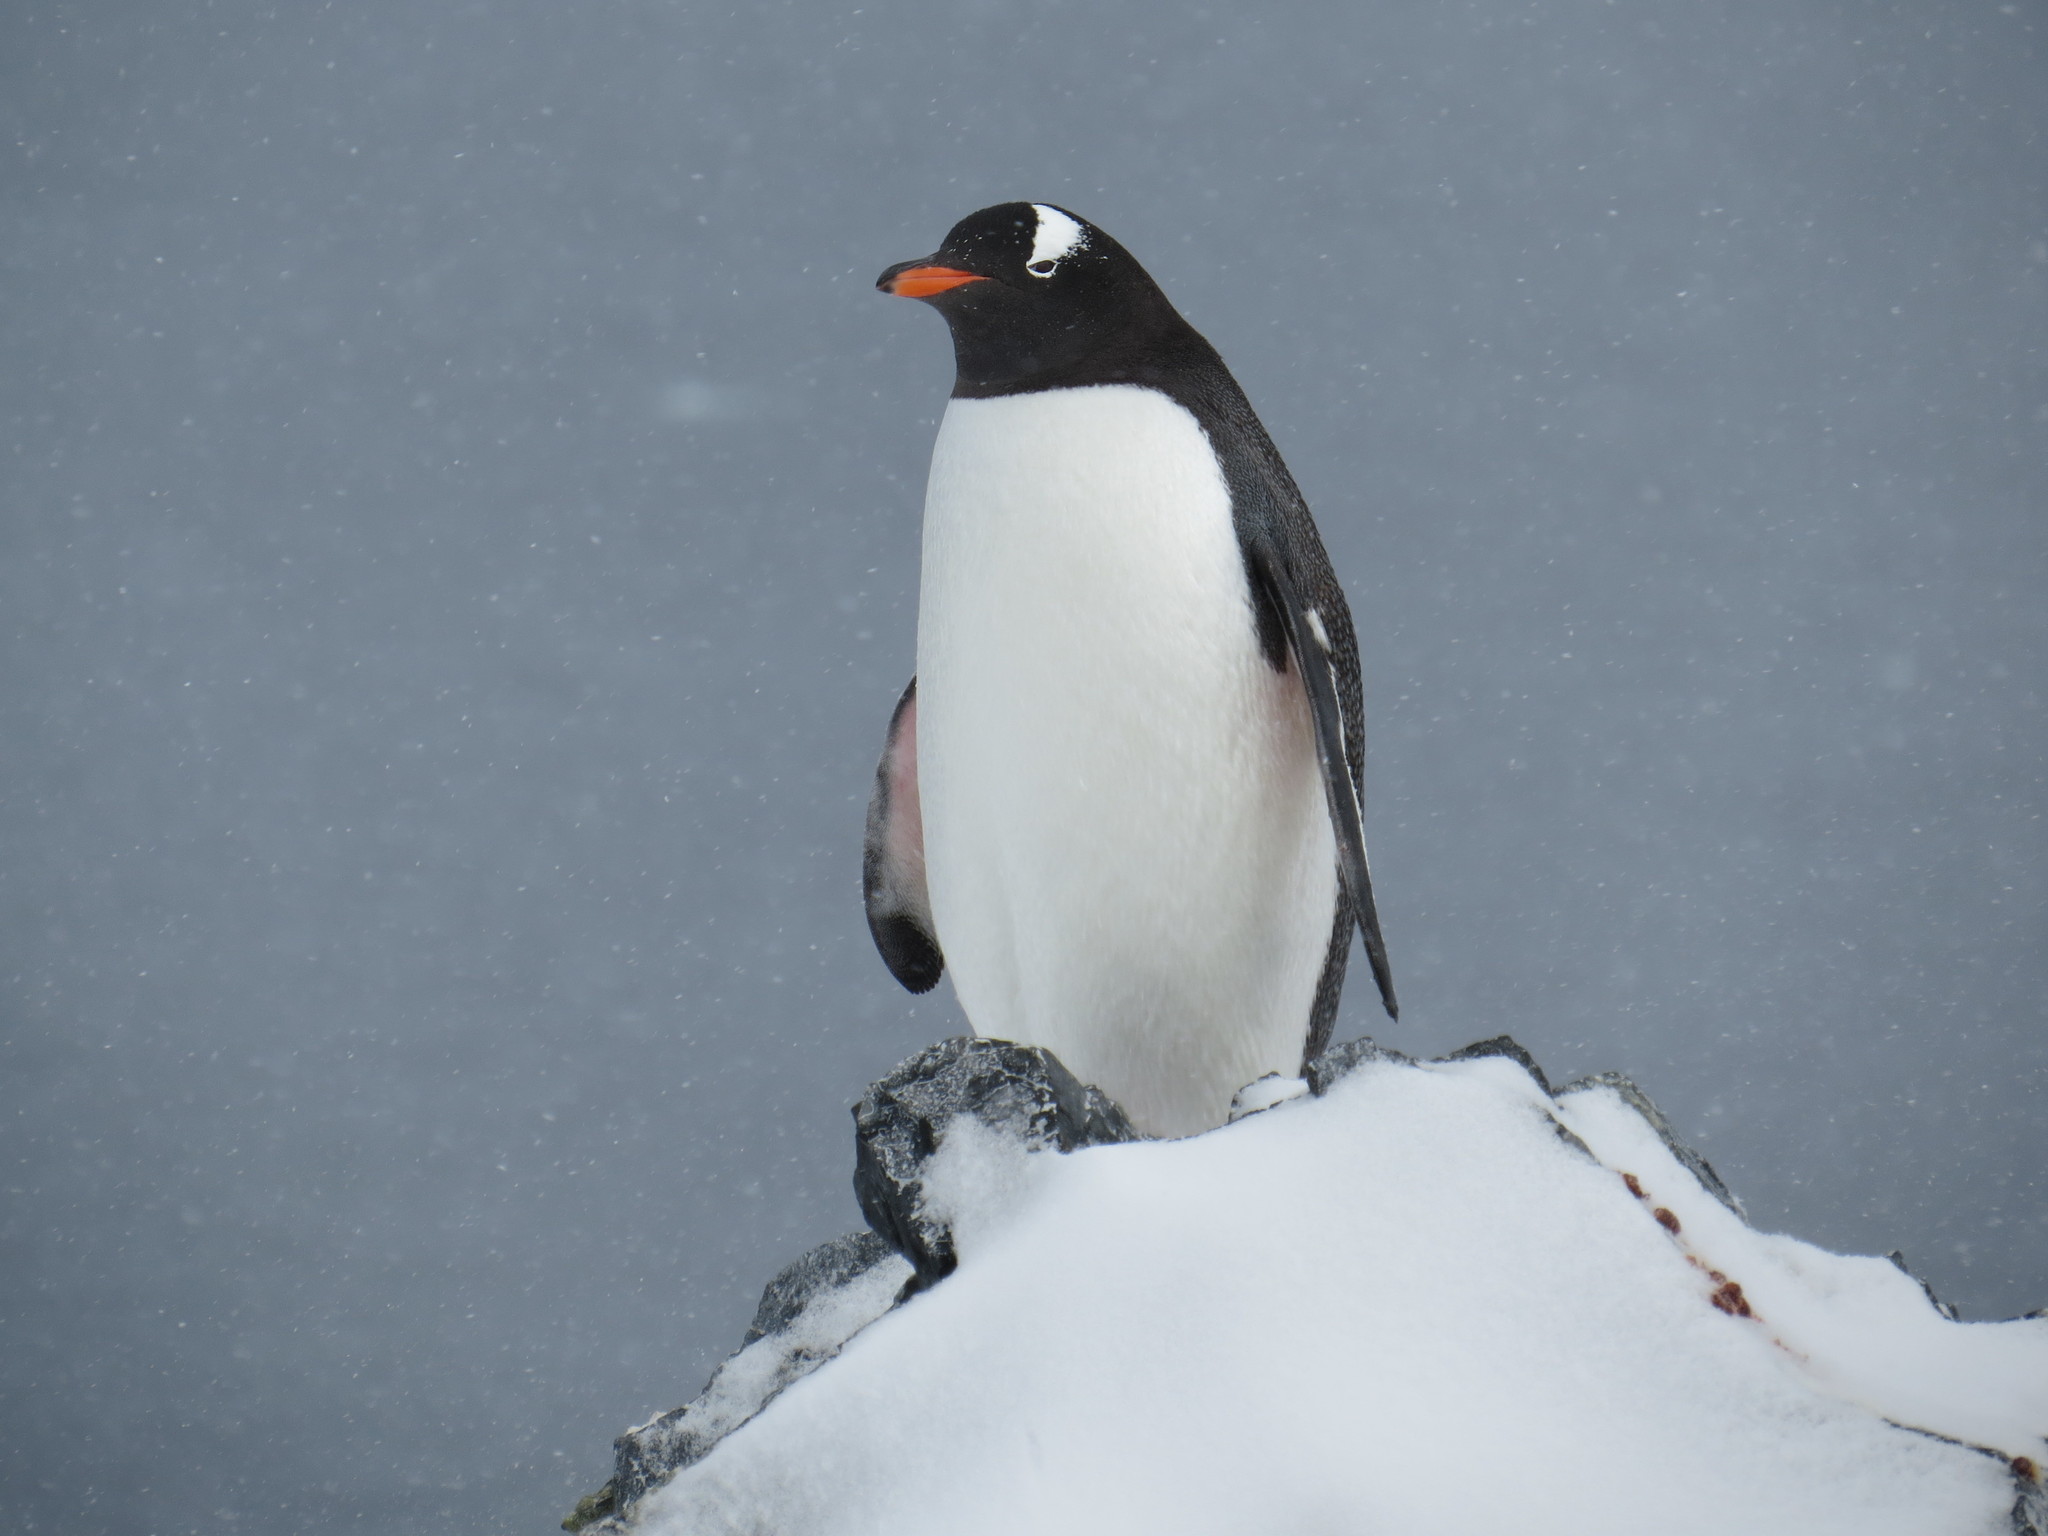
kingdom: Animalia
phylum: Chordata
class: Aves
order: Sphenisciformes
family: Spheniscidae
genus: Pygoscelis
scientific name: Pygoscelis papua
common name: Gentoo penguin
